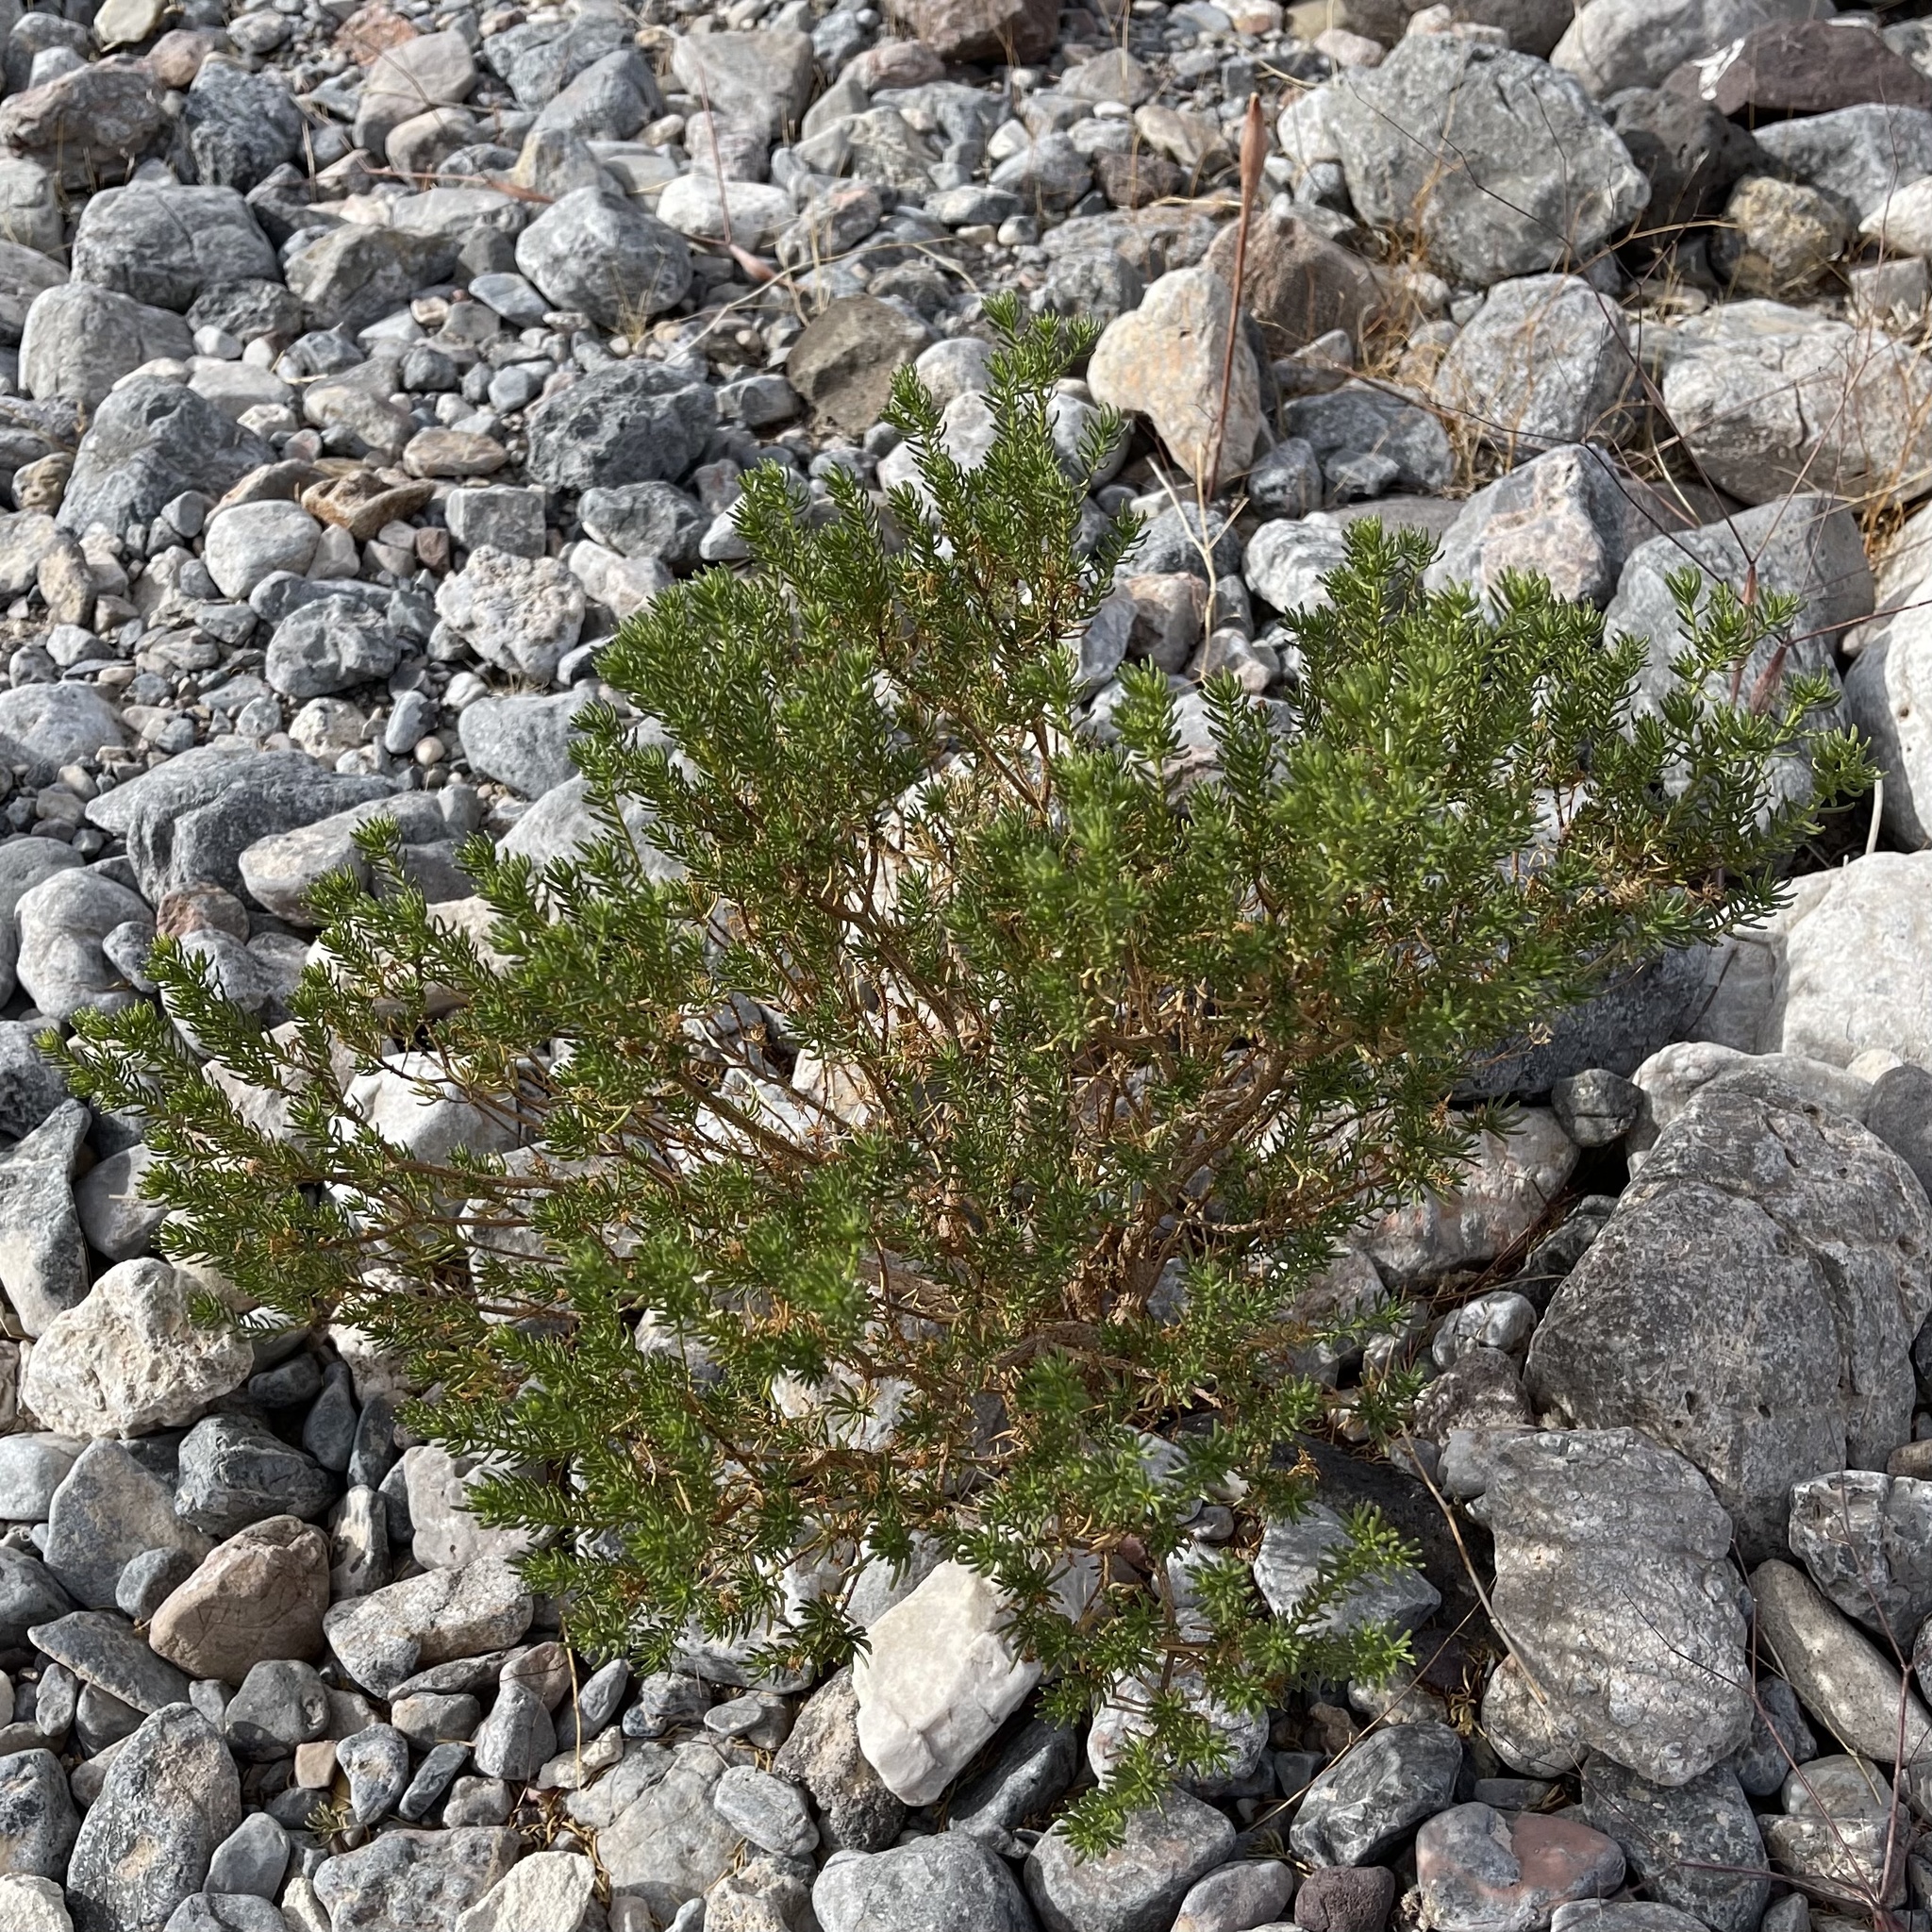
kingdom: Plantae
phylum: Tracheophyta
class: Magnoliopsida
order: Asterales
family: Asteraceae
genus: Peucephyllum
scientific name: Peucephyllum schottii
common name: Pygmy-cedar
